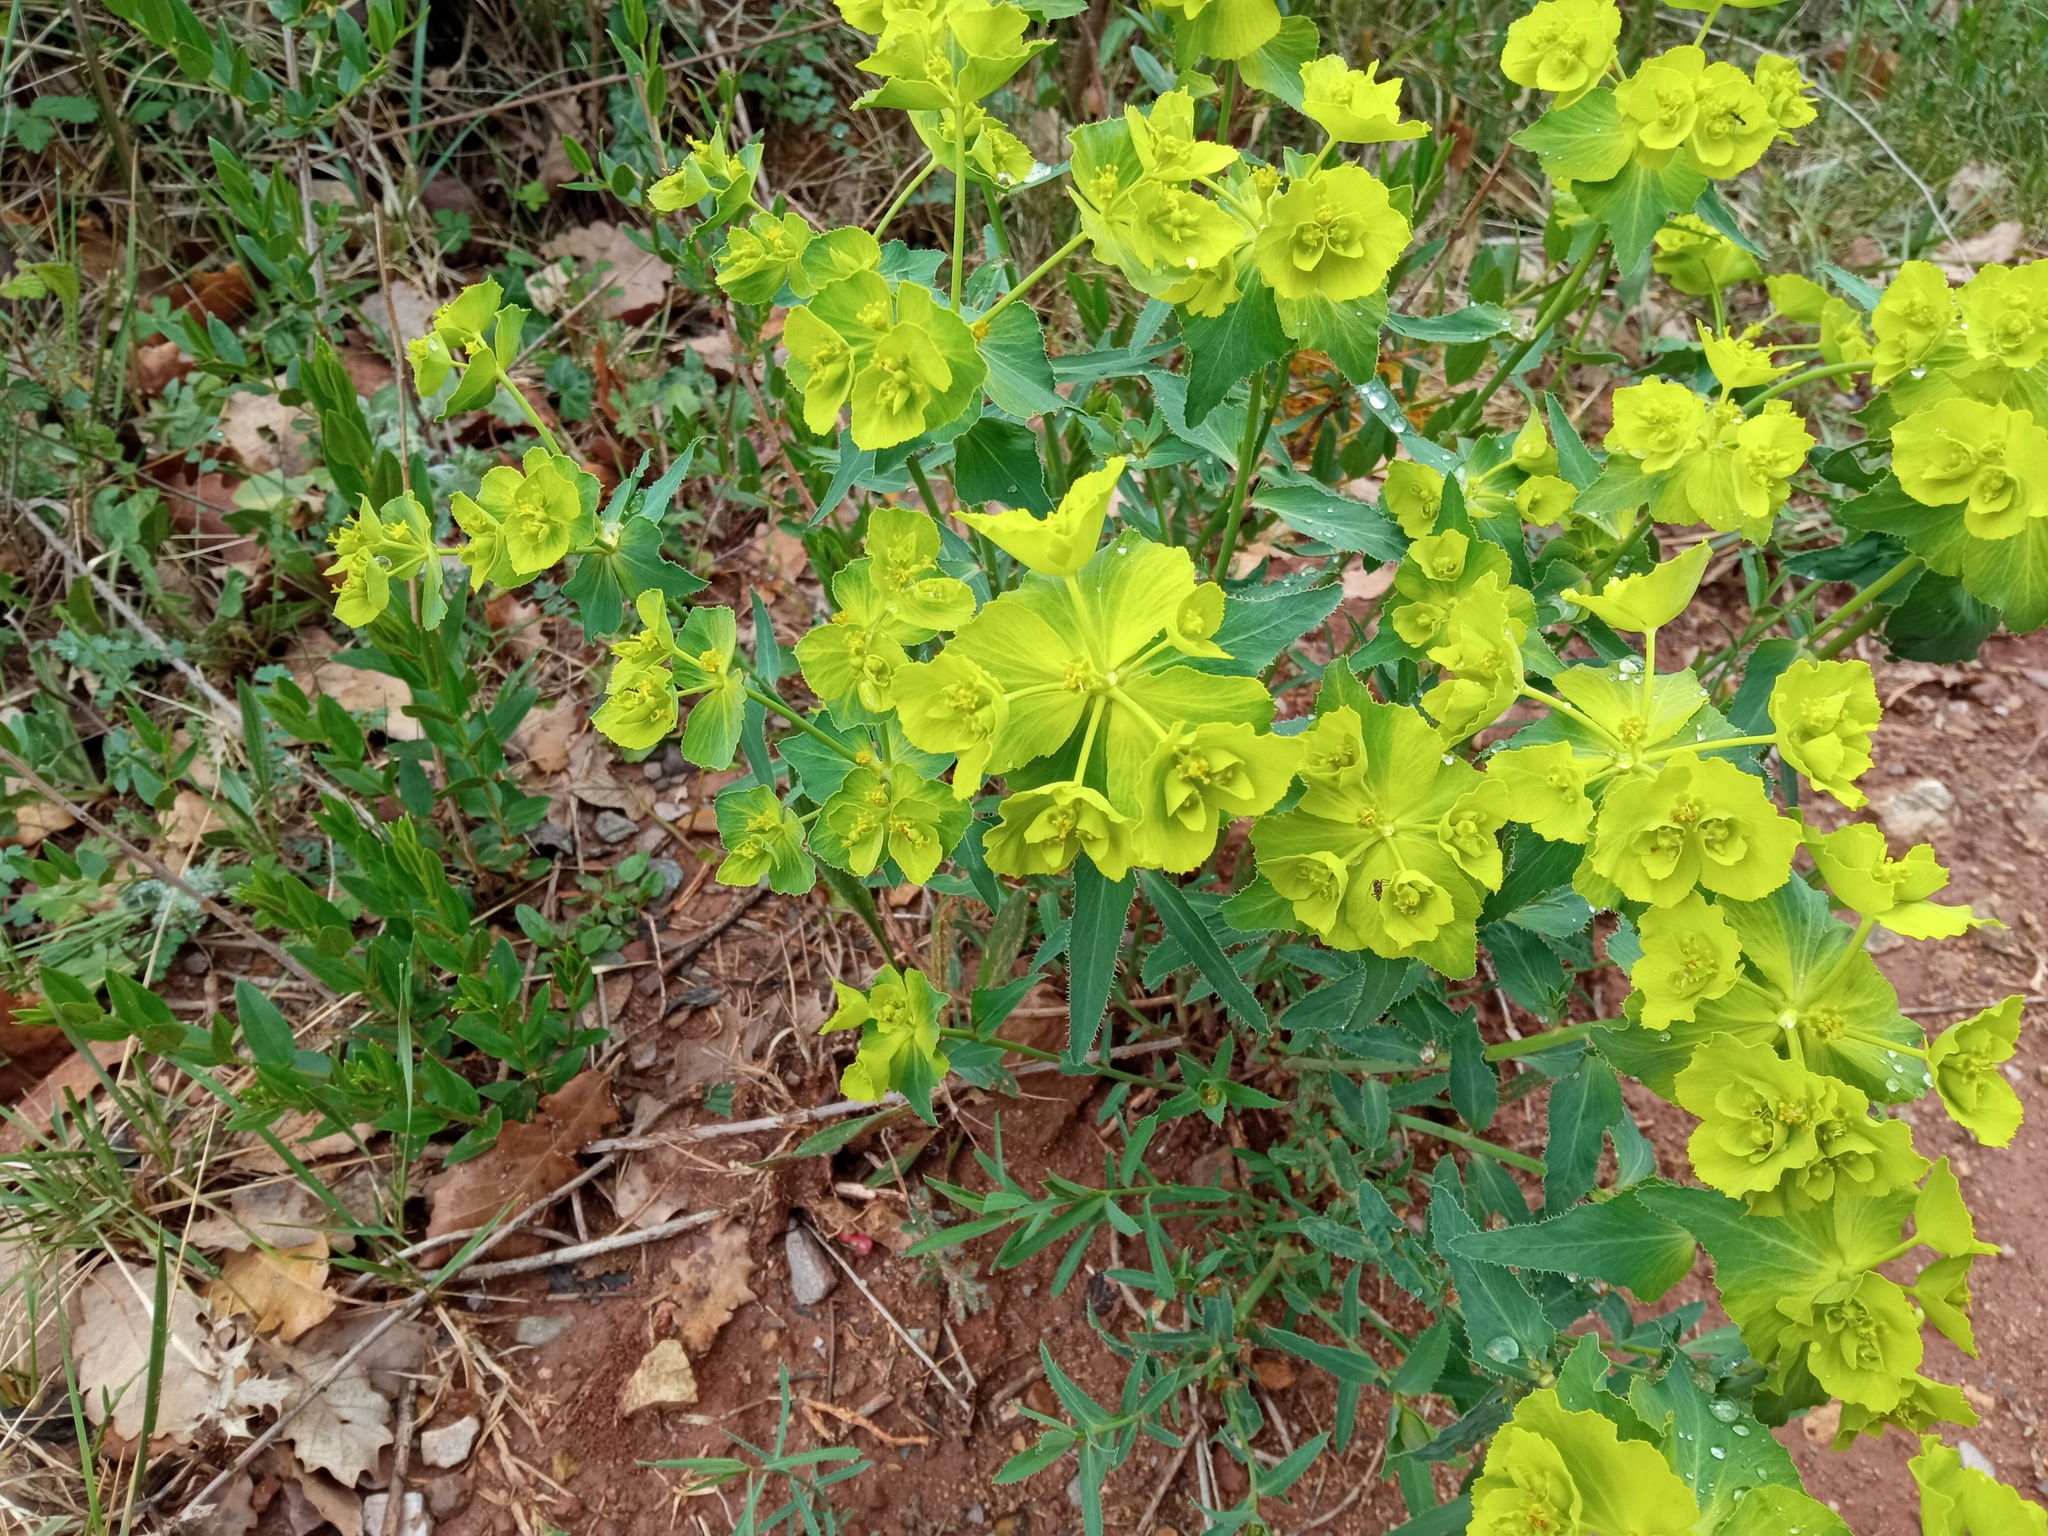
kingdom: Plantae
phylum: Tracheophyta
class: Magnoliopsida
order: Malpighiales
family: Euphorbiaceae
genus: Euphorbia
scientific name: Euphorbia serrata
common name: Serrate spurge
